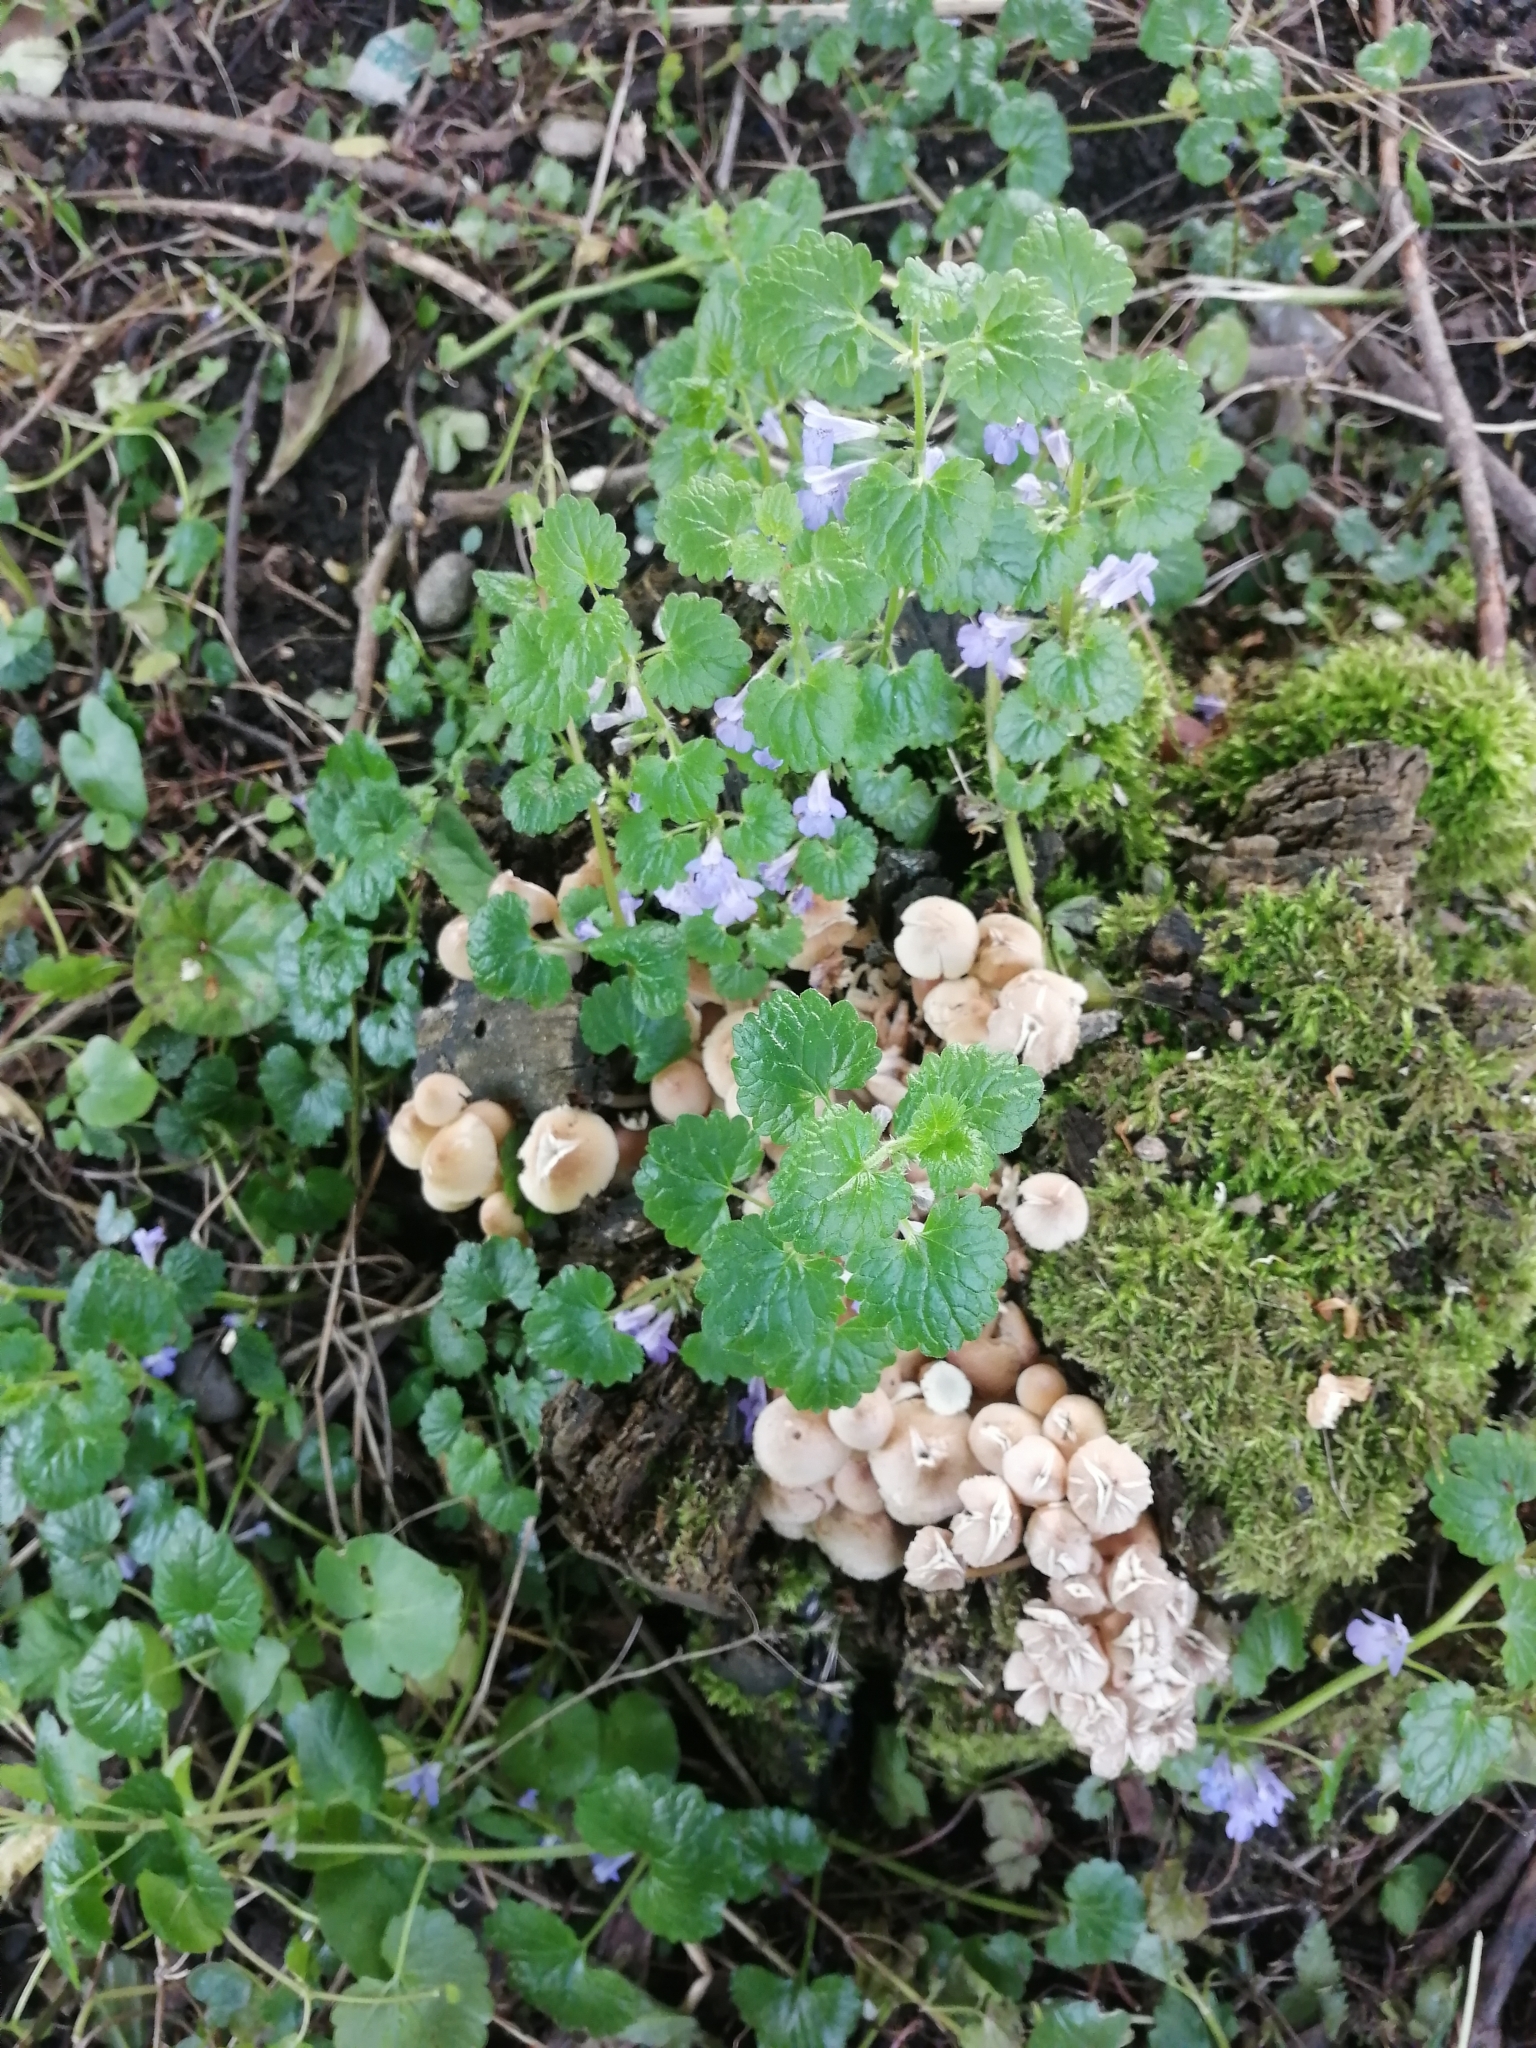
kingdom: Plantae
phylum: Tracheophyta
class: Magnoliopsida
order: Lamiales
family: Lamiaceae
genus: Glechoma
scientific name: Glechoma hederacea
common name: Ground ivy
